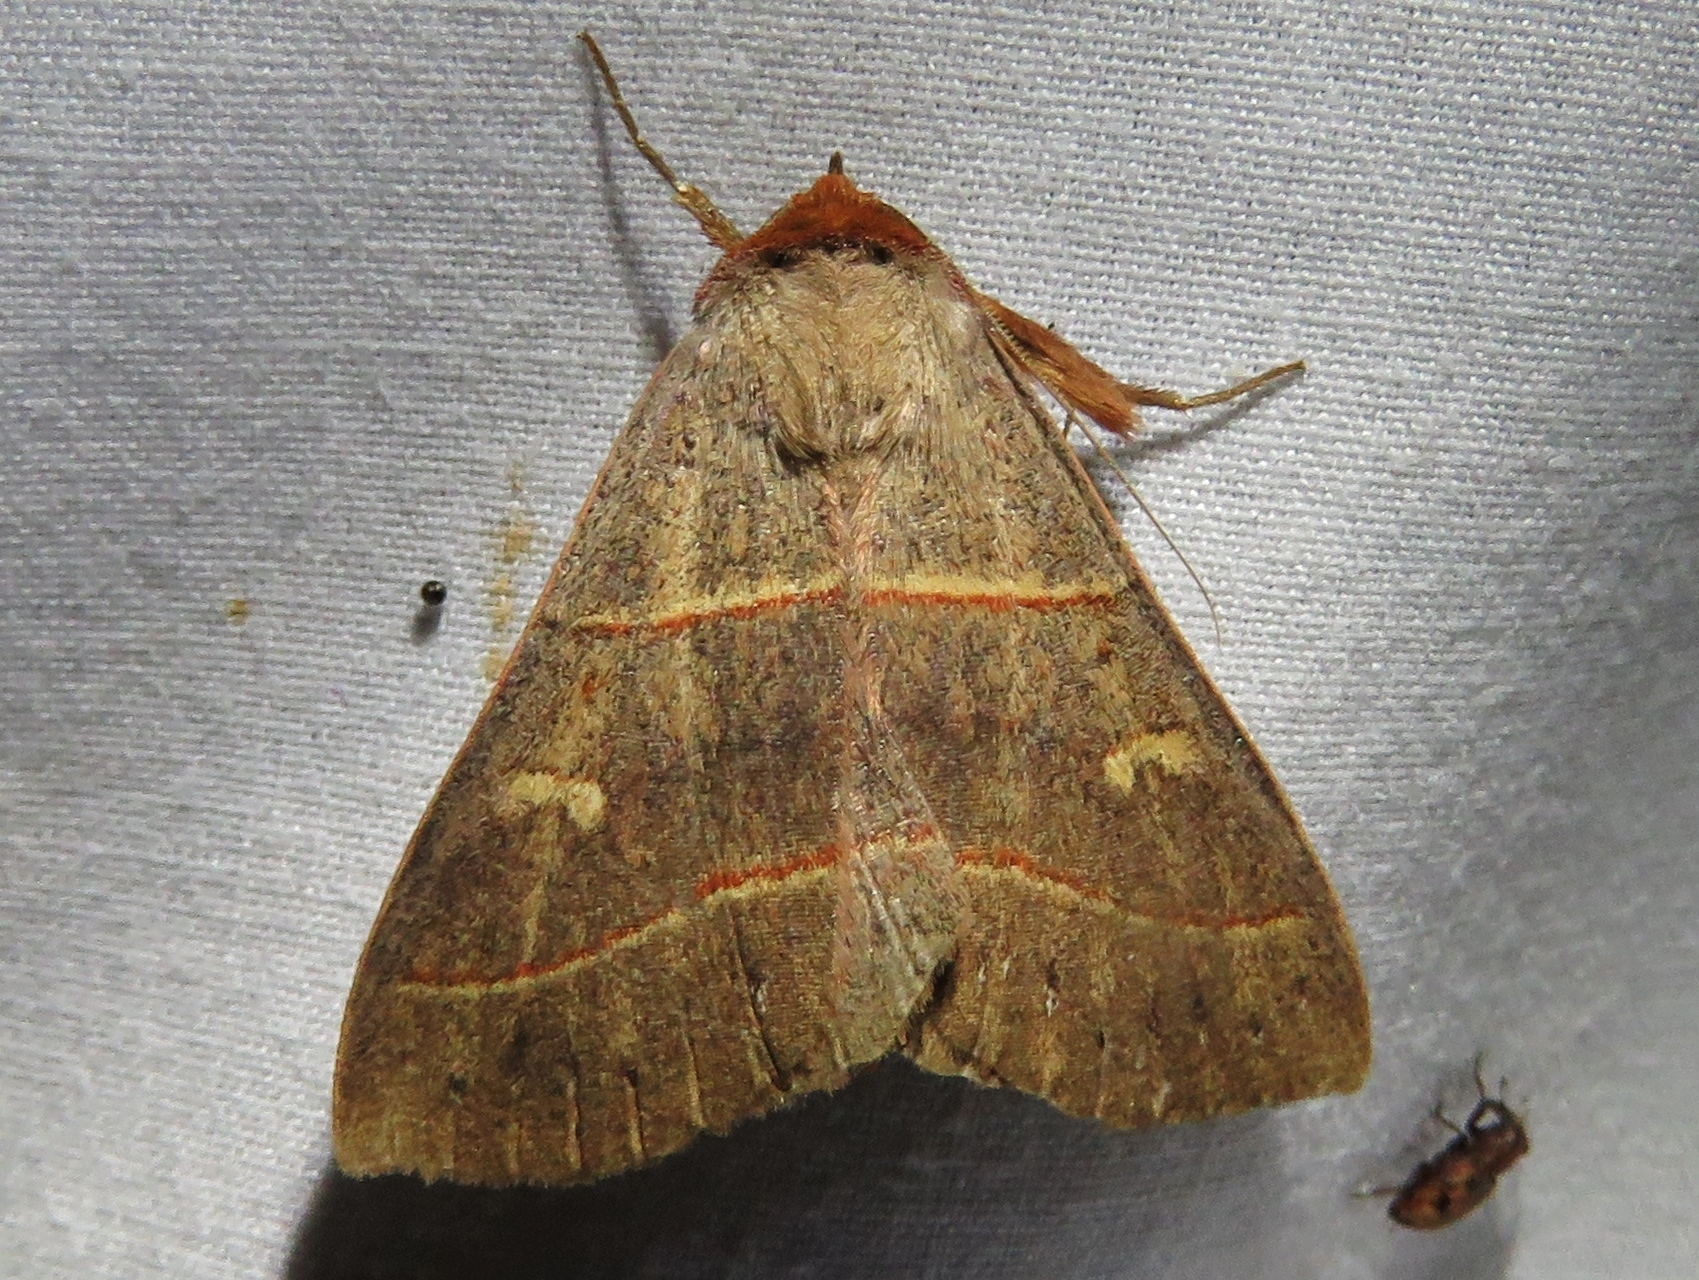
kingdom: Animalia
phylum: Arthropoda
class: Insecta
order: Lepidoptera
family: Erebidae
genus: Panopoda
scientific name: Panopoda rufimargo
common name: Red-lined panopoda moth
